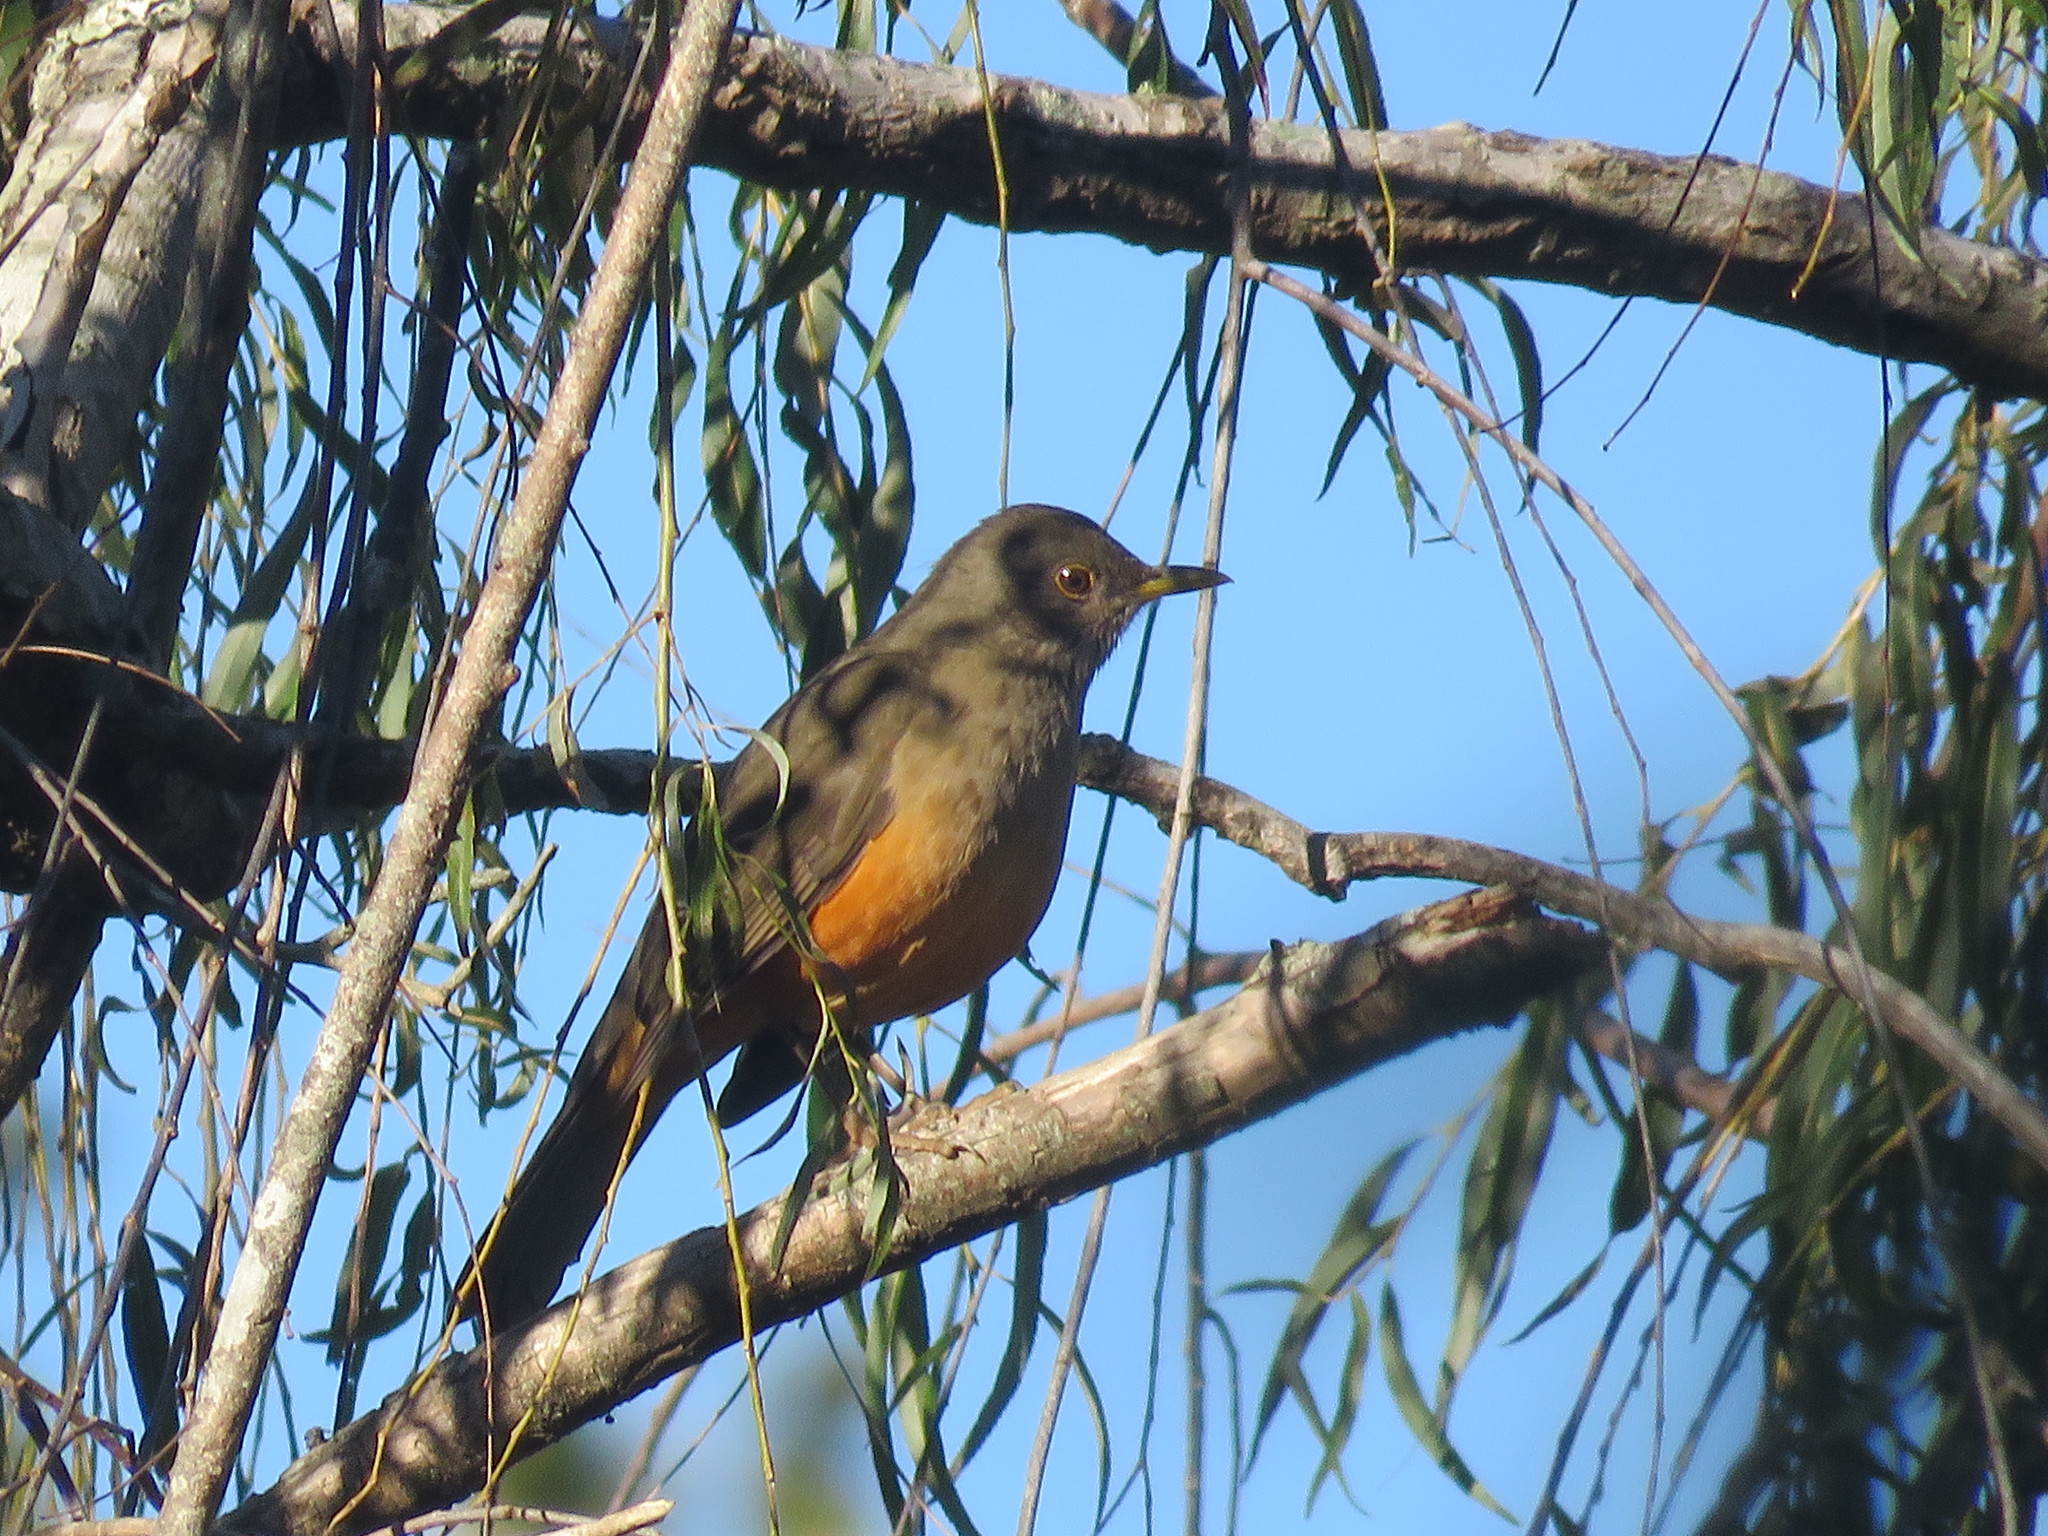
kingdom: Animalia
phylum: Chordata
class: Aves
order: Passeriformes
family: Turdidae
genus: Turdus
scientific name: Turdus rufiventris
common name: Rufous-bellied thrush
